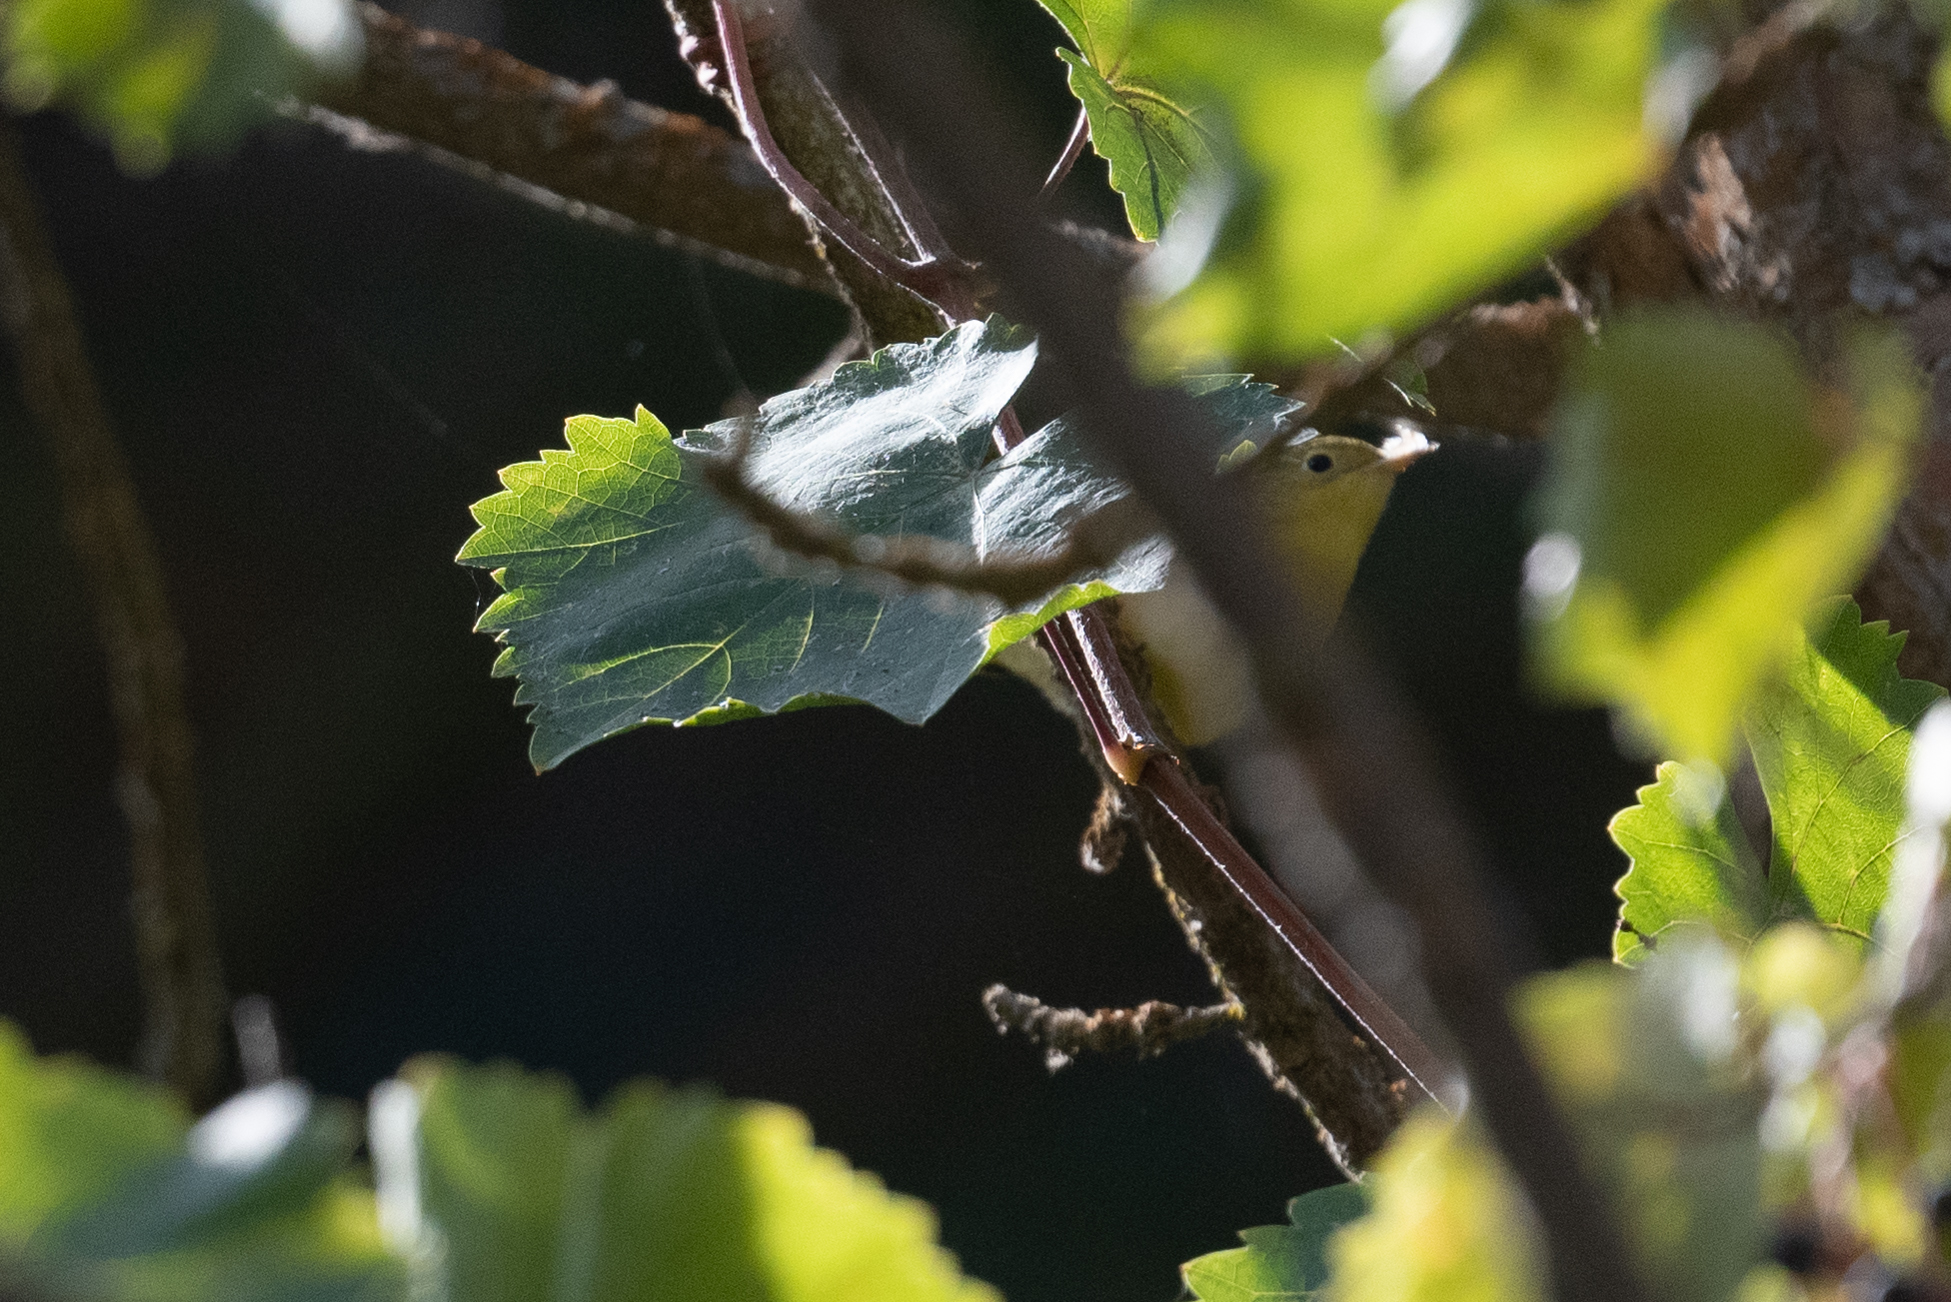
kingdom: Animalia
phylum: Chordata
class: Aves
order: Passeriformes
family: Parulidae
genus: Setophaga
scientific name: Setophaga petechia
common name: Yellow warbler
